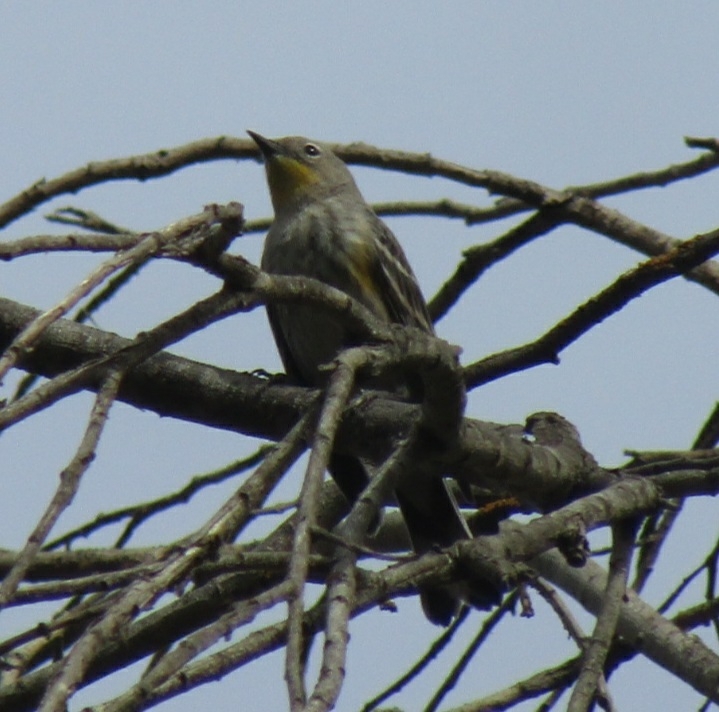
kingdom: Animalia
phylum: Chordata
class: Aves
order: Passeriformes
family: Parulidae
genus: Setophaga
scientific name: Setophaga coronata
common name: Myrtle warbler
